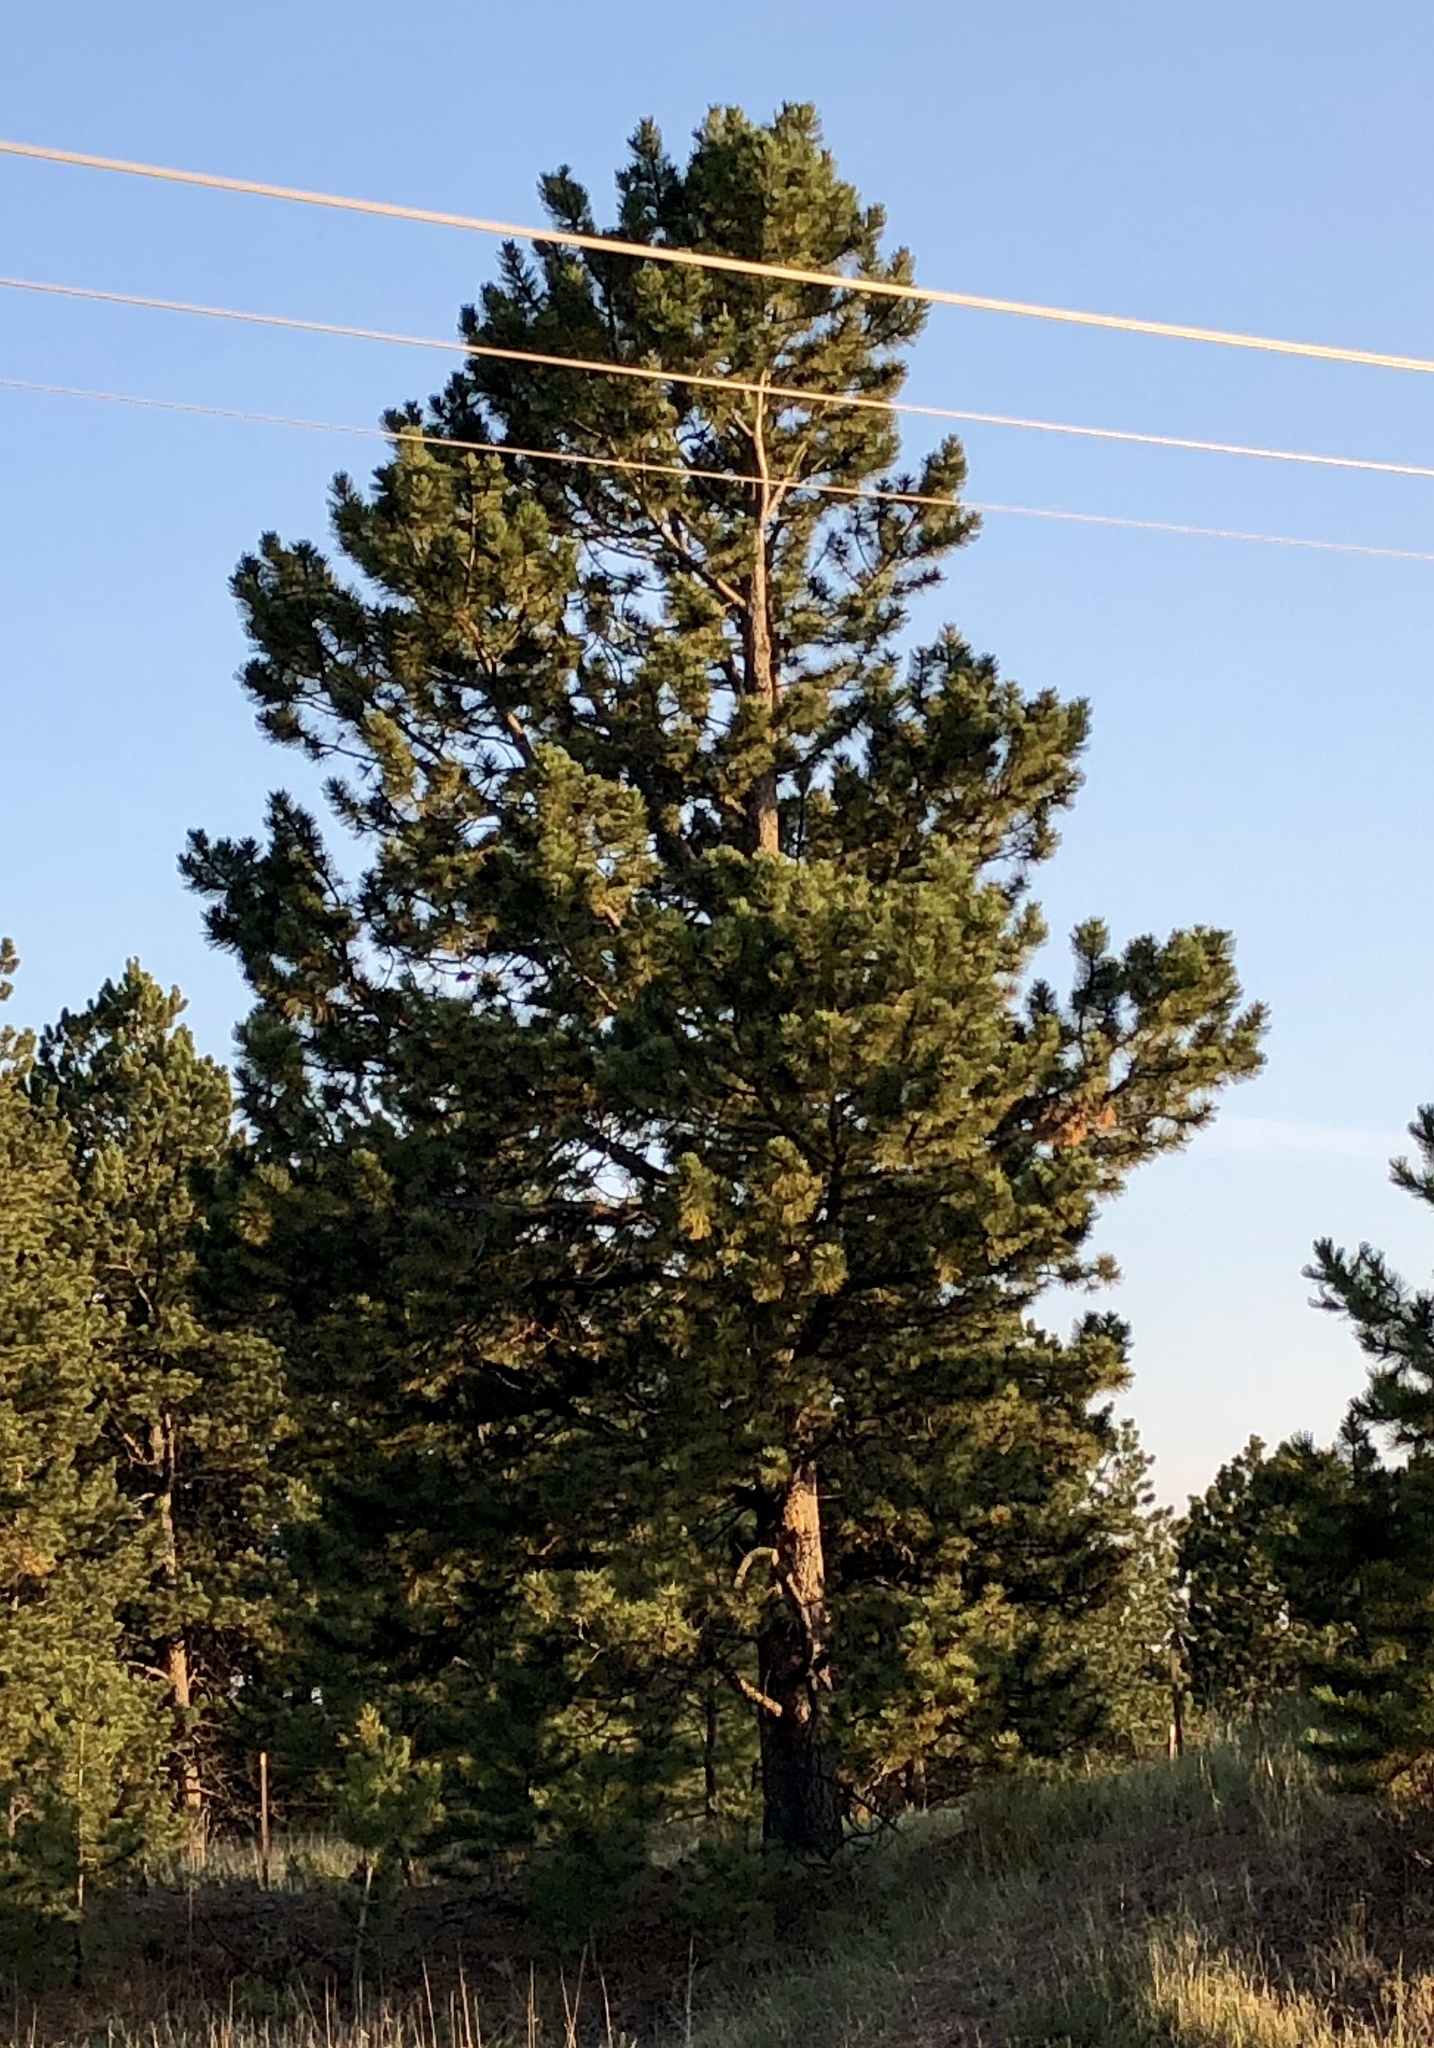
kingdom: Plantae
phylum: Tracheophyta
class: Pinopsida
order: Pinales
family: Pinaceae
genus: Pinus
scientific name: Pinus ponderosa
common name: Western yellow-pine
